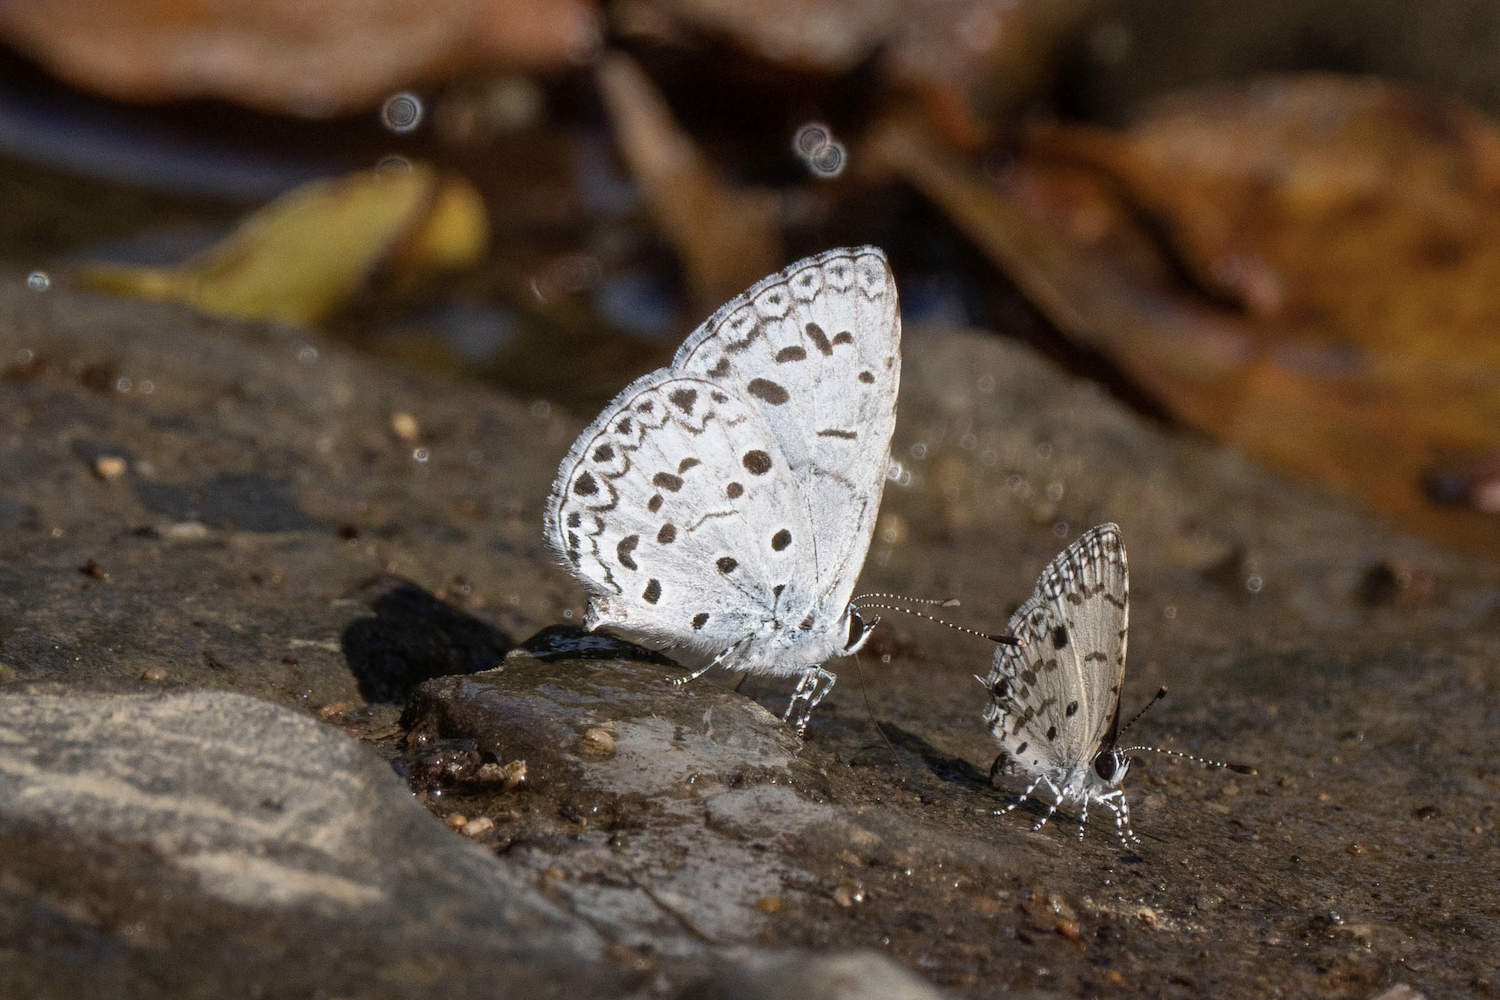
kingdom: Animalia
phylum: Arthropoda
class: Insecta
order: Lepidoptera
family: Lycaenidae
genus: Acytolepis
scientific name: Acytolepis puspa
